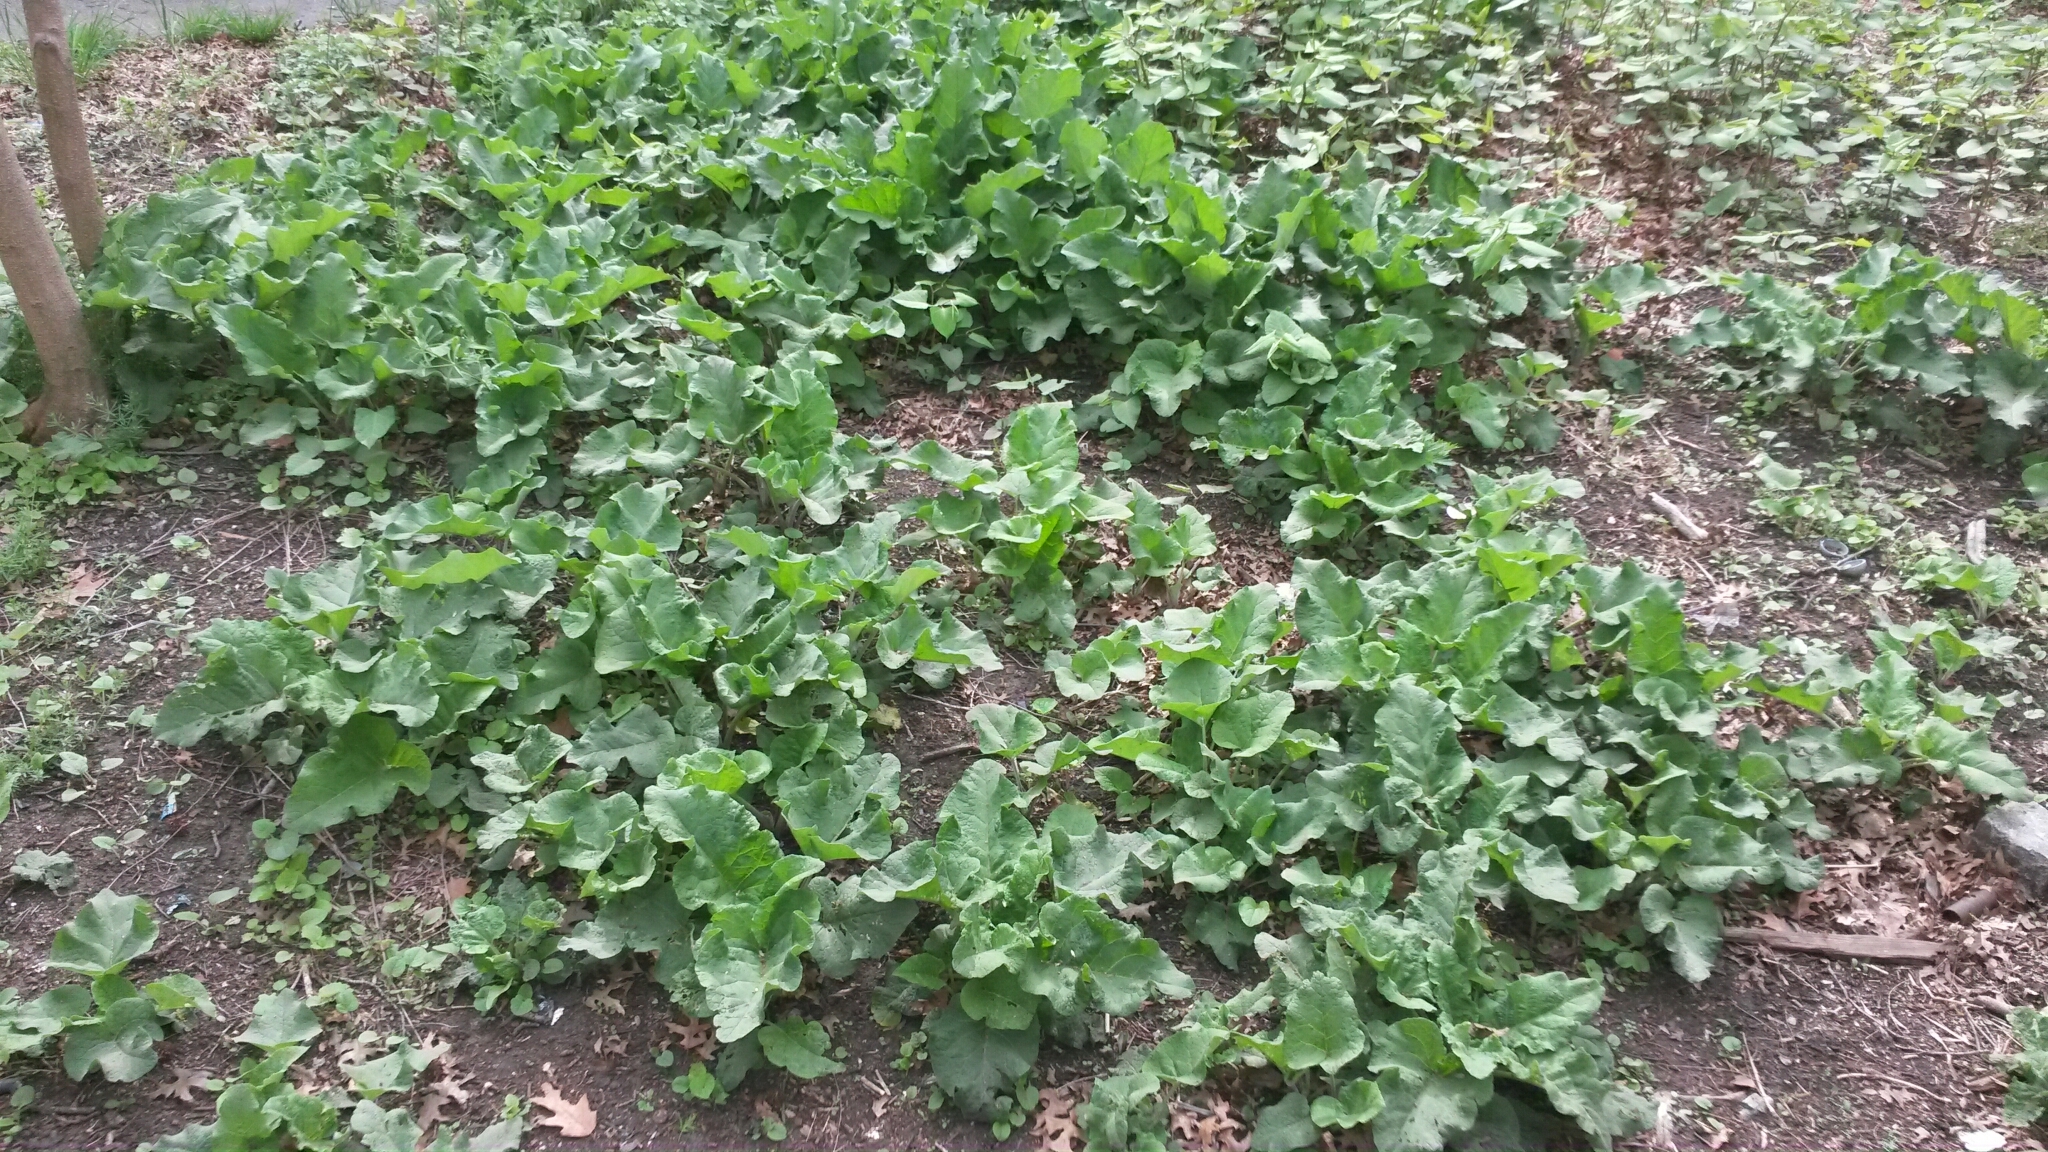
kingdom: Plantae
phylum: Tracheophyta
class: Magnoliopsida
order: Asterales
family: Asteraceae
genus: Arctium
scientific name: Arctium
